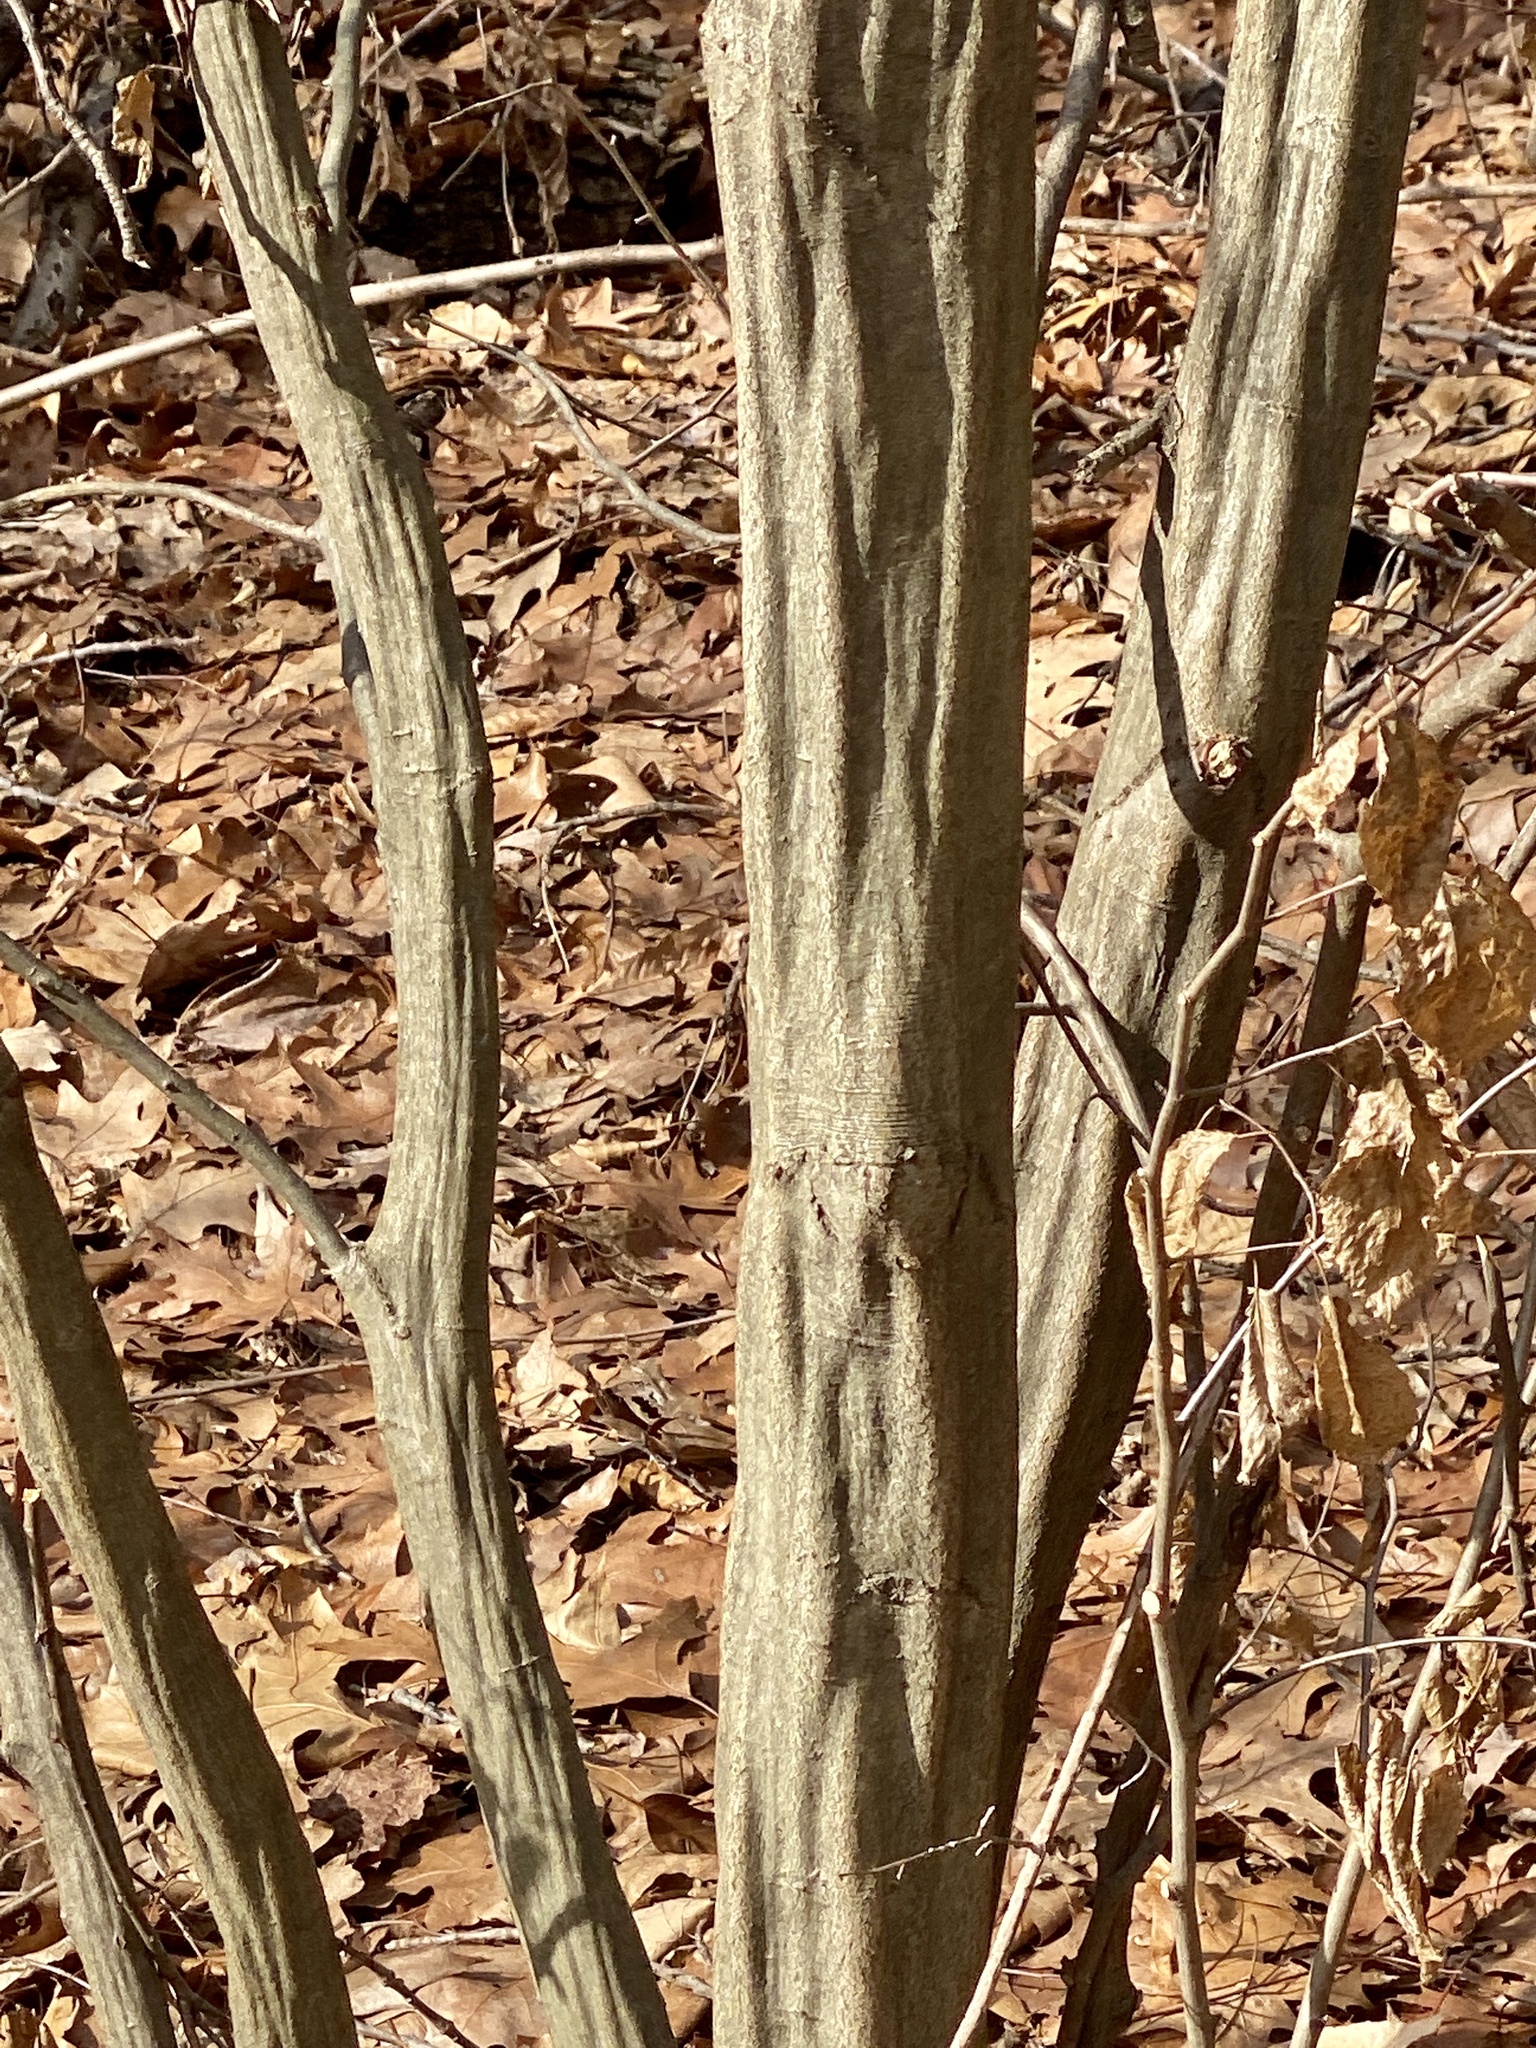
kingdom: Plantae
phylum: Tracheophyta
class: Magnoliopsida
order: Fagales
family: Betulaceae
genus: Carpinus
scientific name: Carpinus caroliniana
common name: American hornbeam
